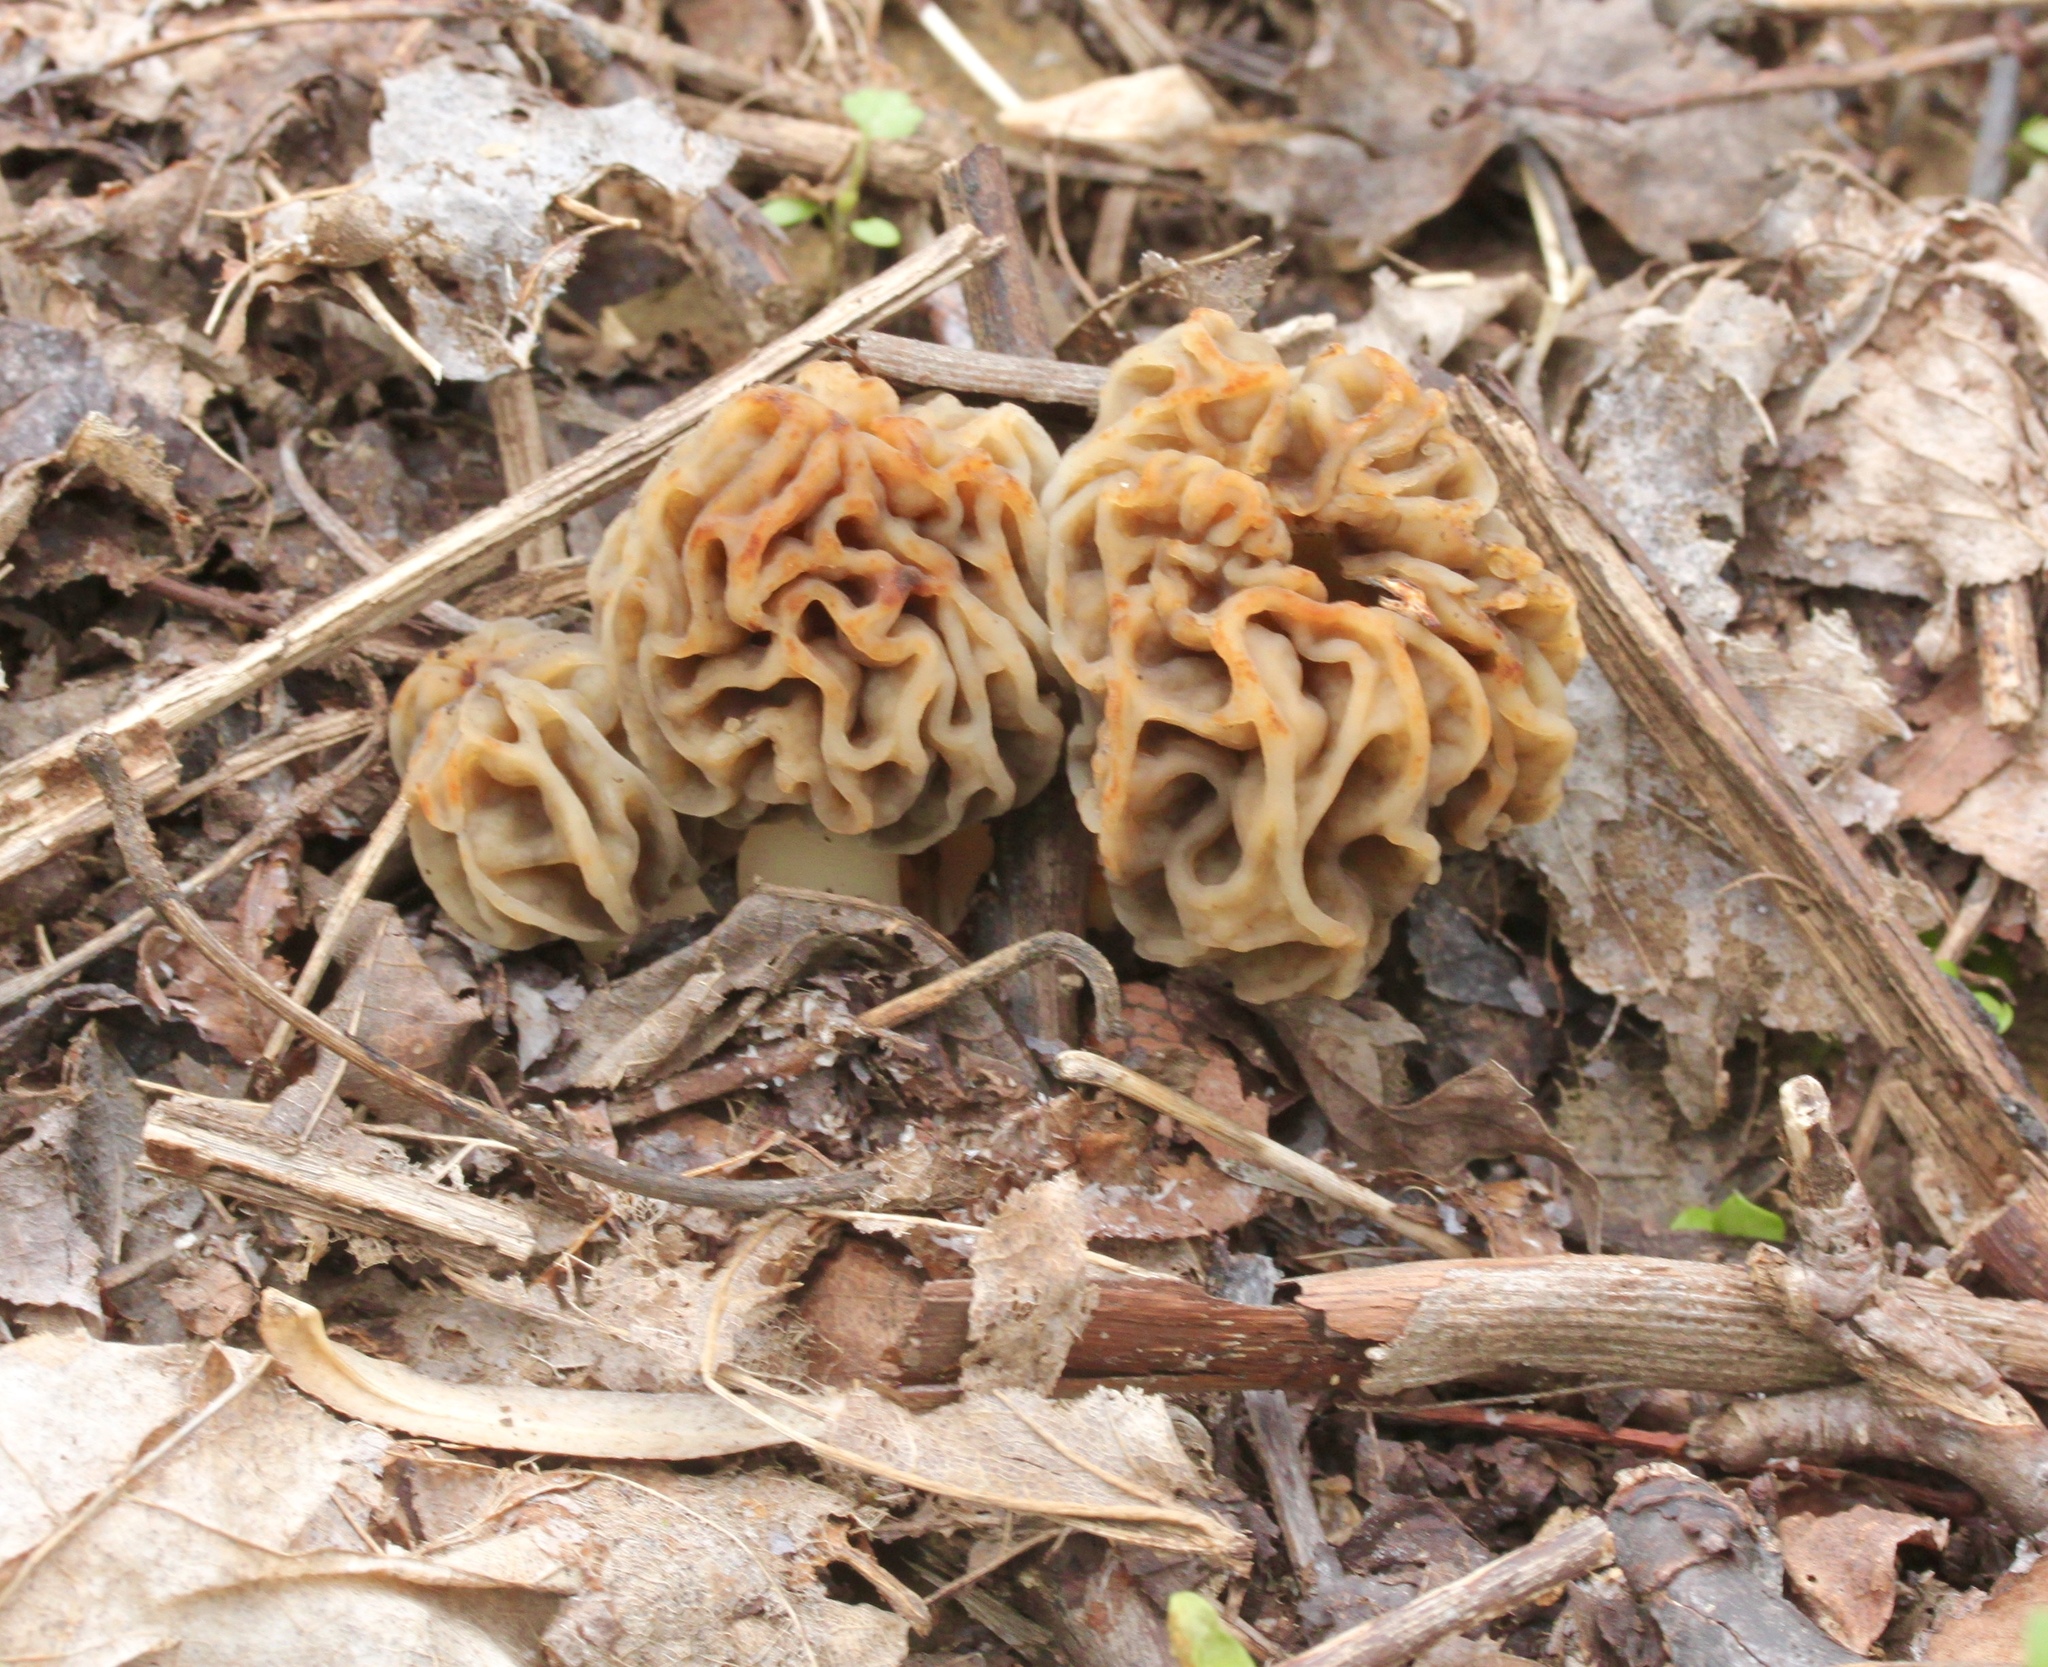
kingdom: Fungi
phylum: Ascomycota
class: Pezizomycetes
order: Pezizales
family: Morchellaceae
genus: Morchella
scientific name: Morchella americana
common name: White morel
